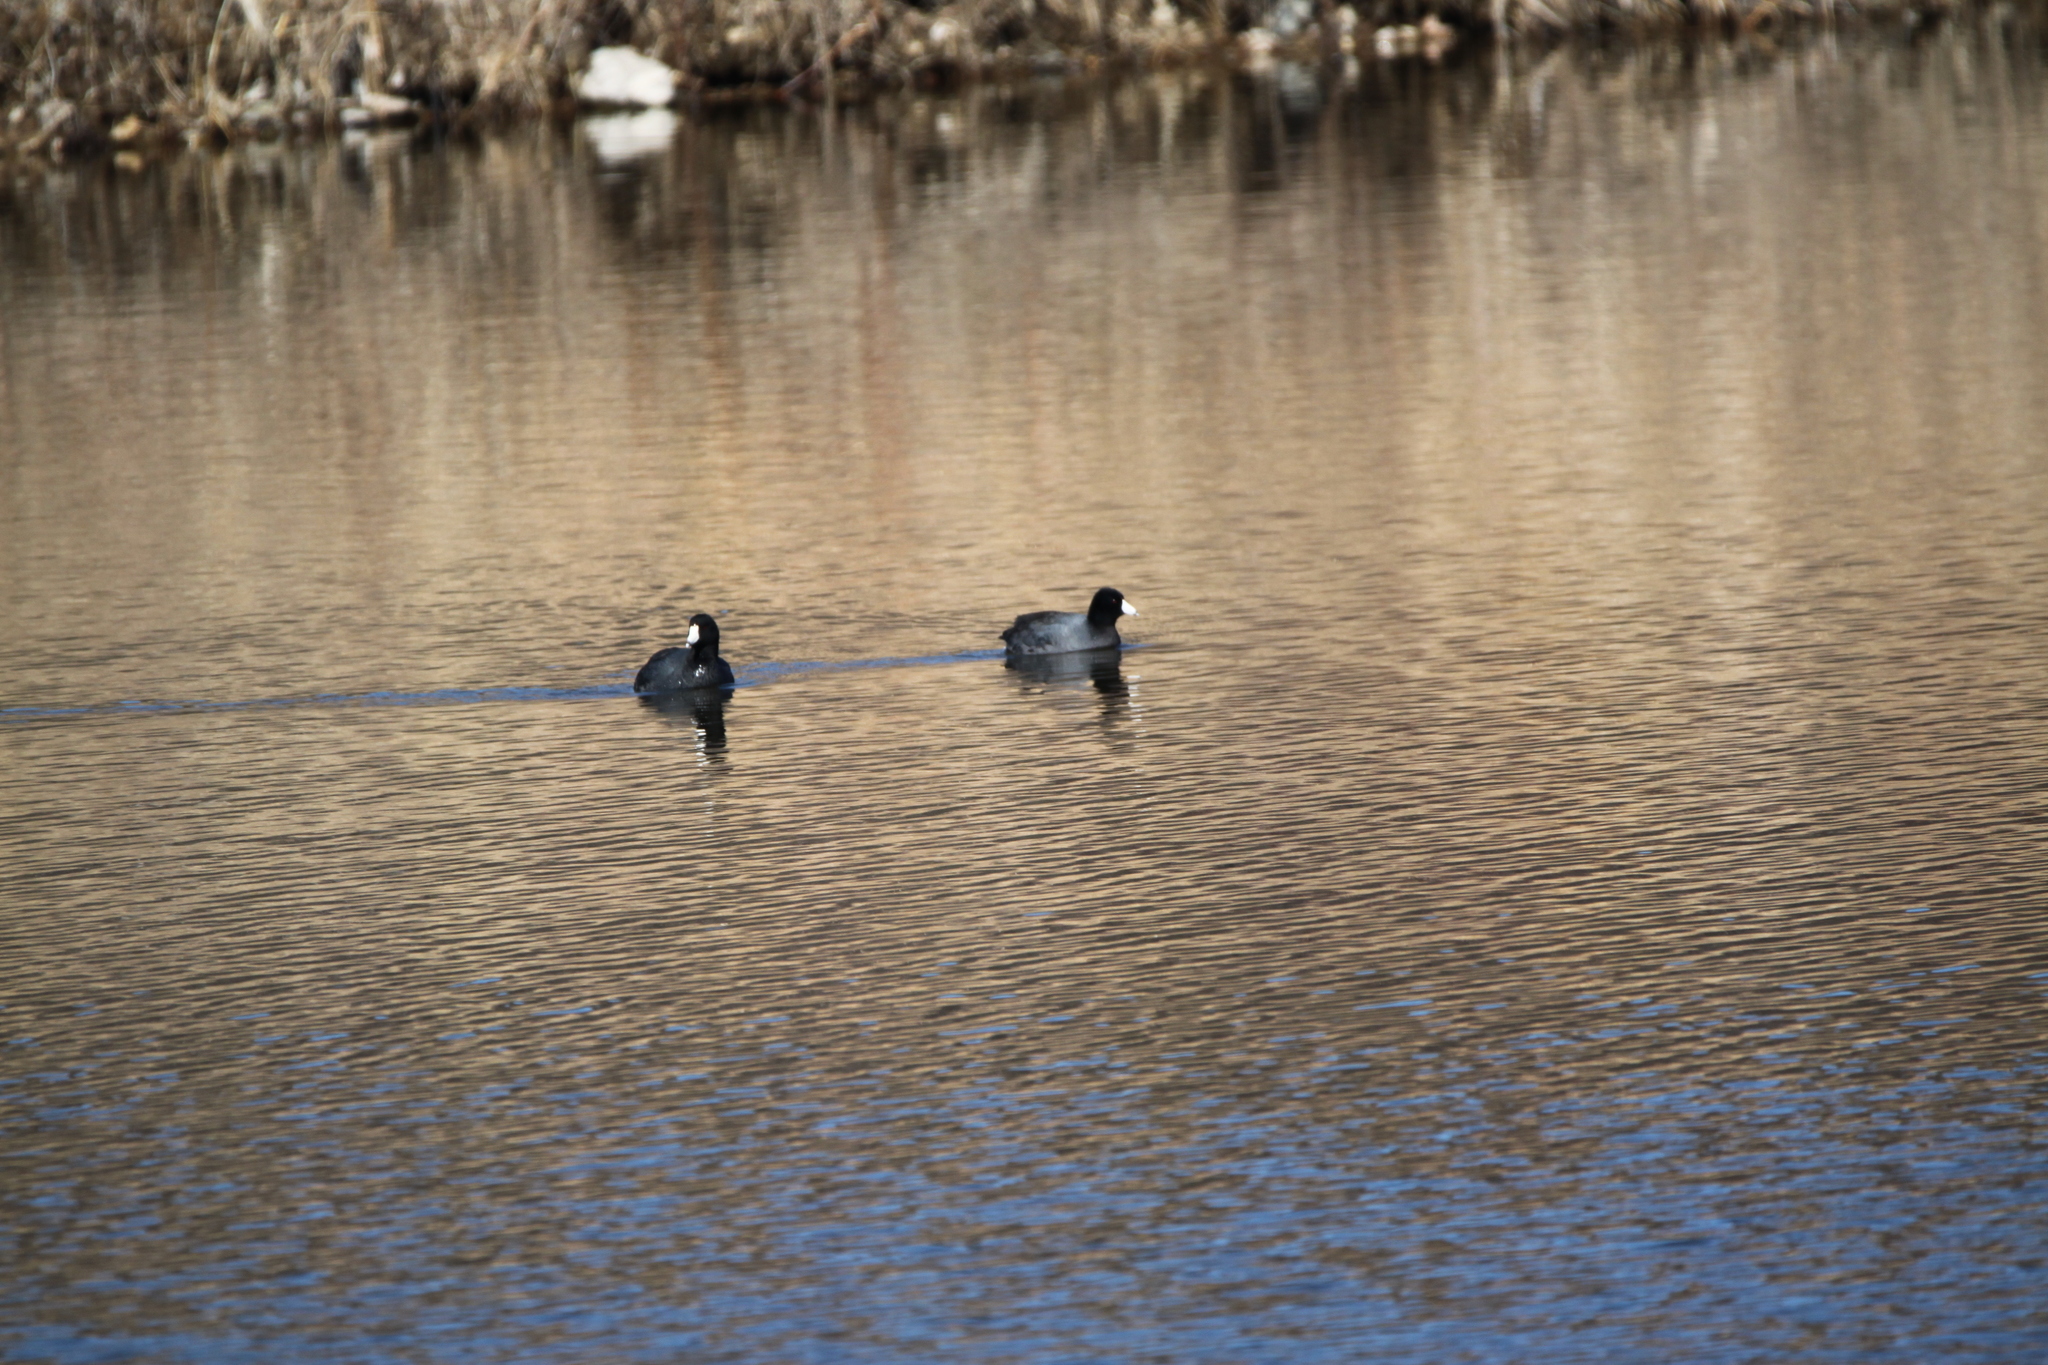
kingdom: Animalia
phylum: Chordata
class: Aves
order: Gruiformes
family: Rallidae
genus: Fulica
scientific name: Fulica americana
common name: American coot
